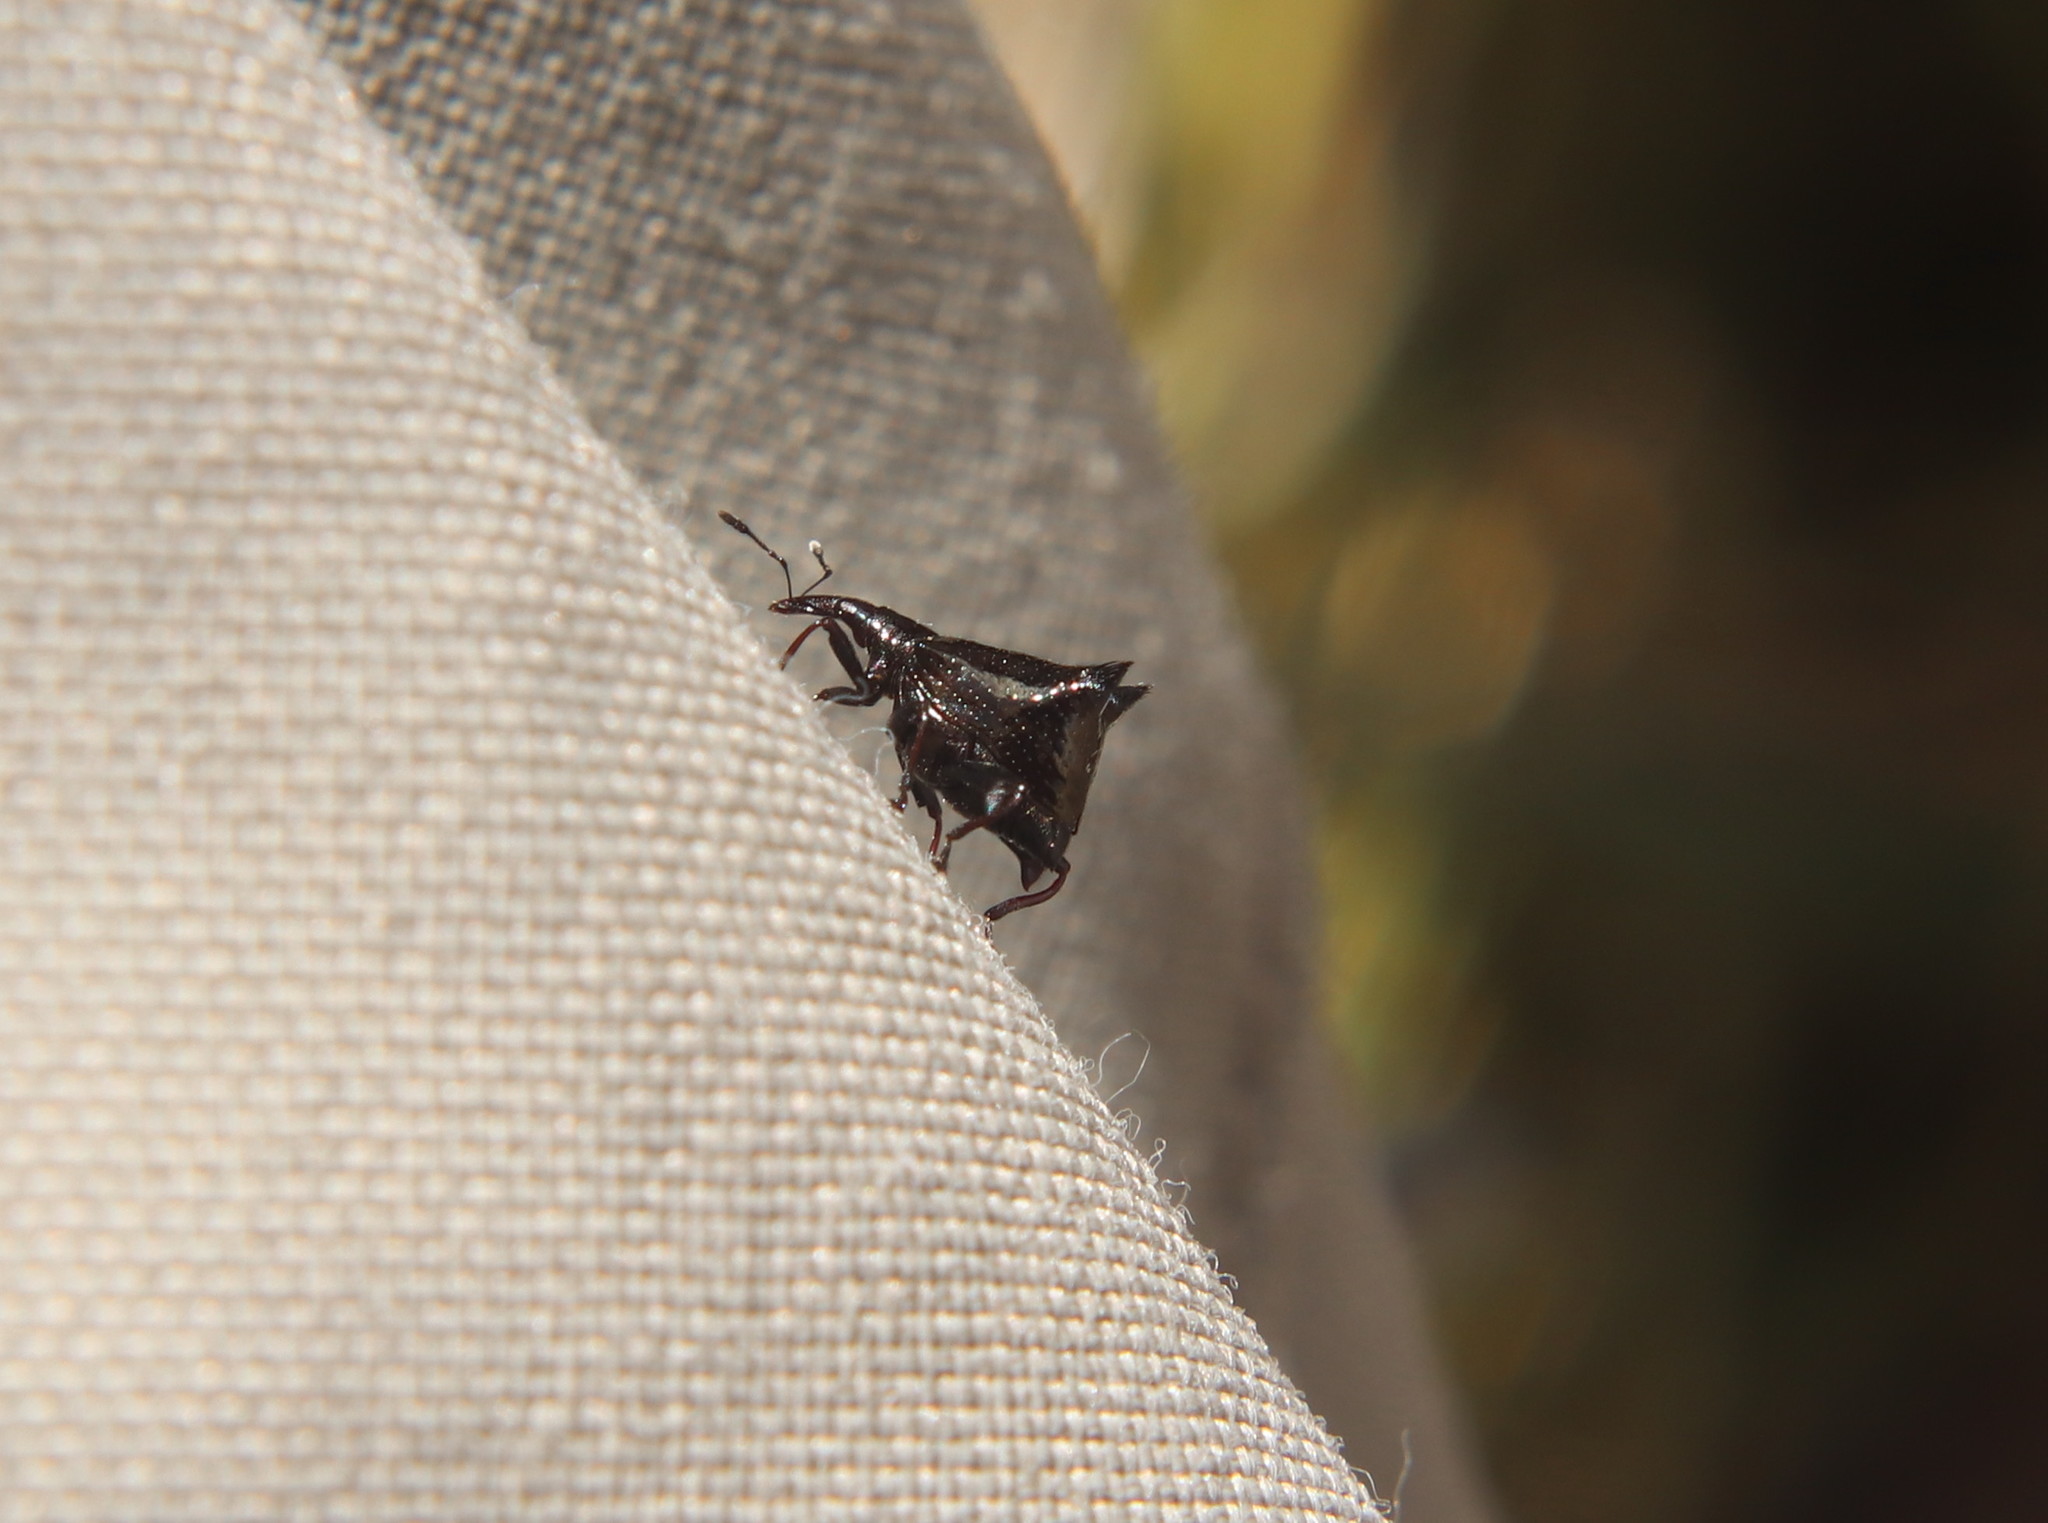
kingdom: Animalia
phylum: Arthropoda
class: Insecta
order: Coleoptera
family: Curculionidae
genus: Scolopterus
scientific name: Scolopterus penicillatus
